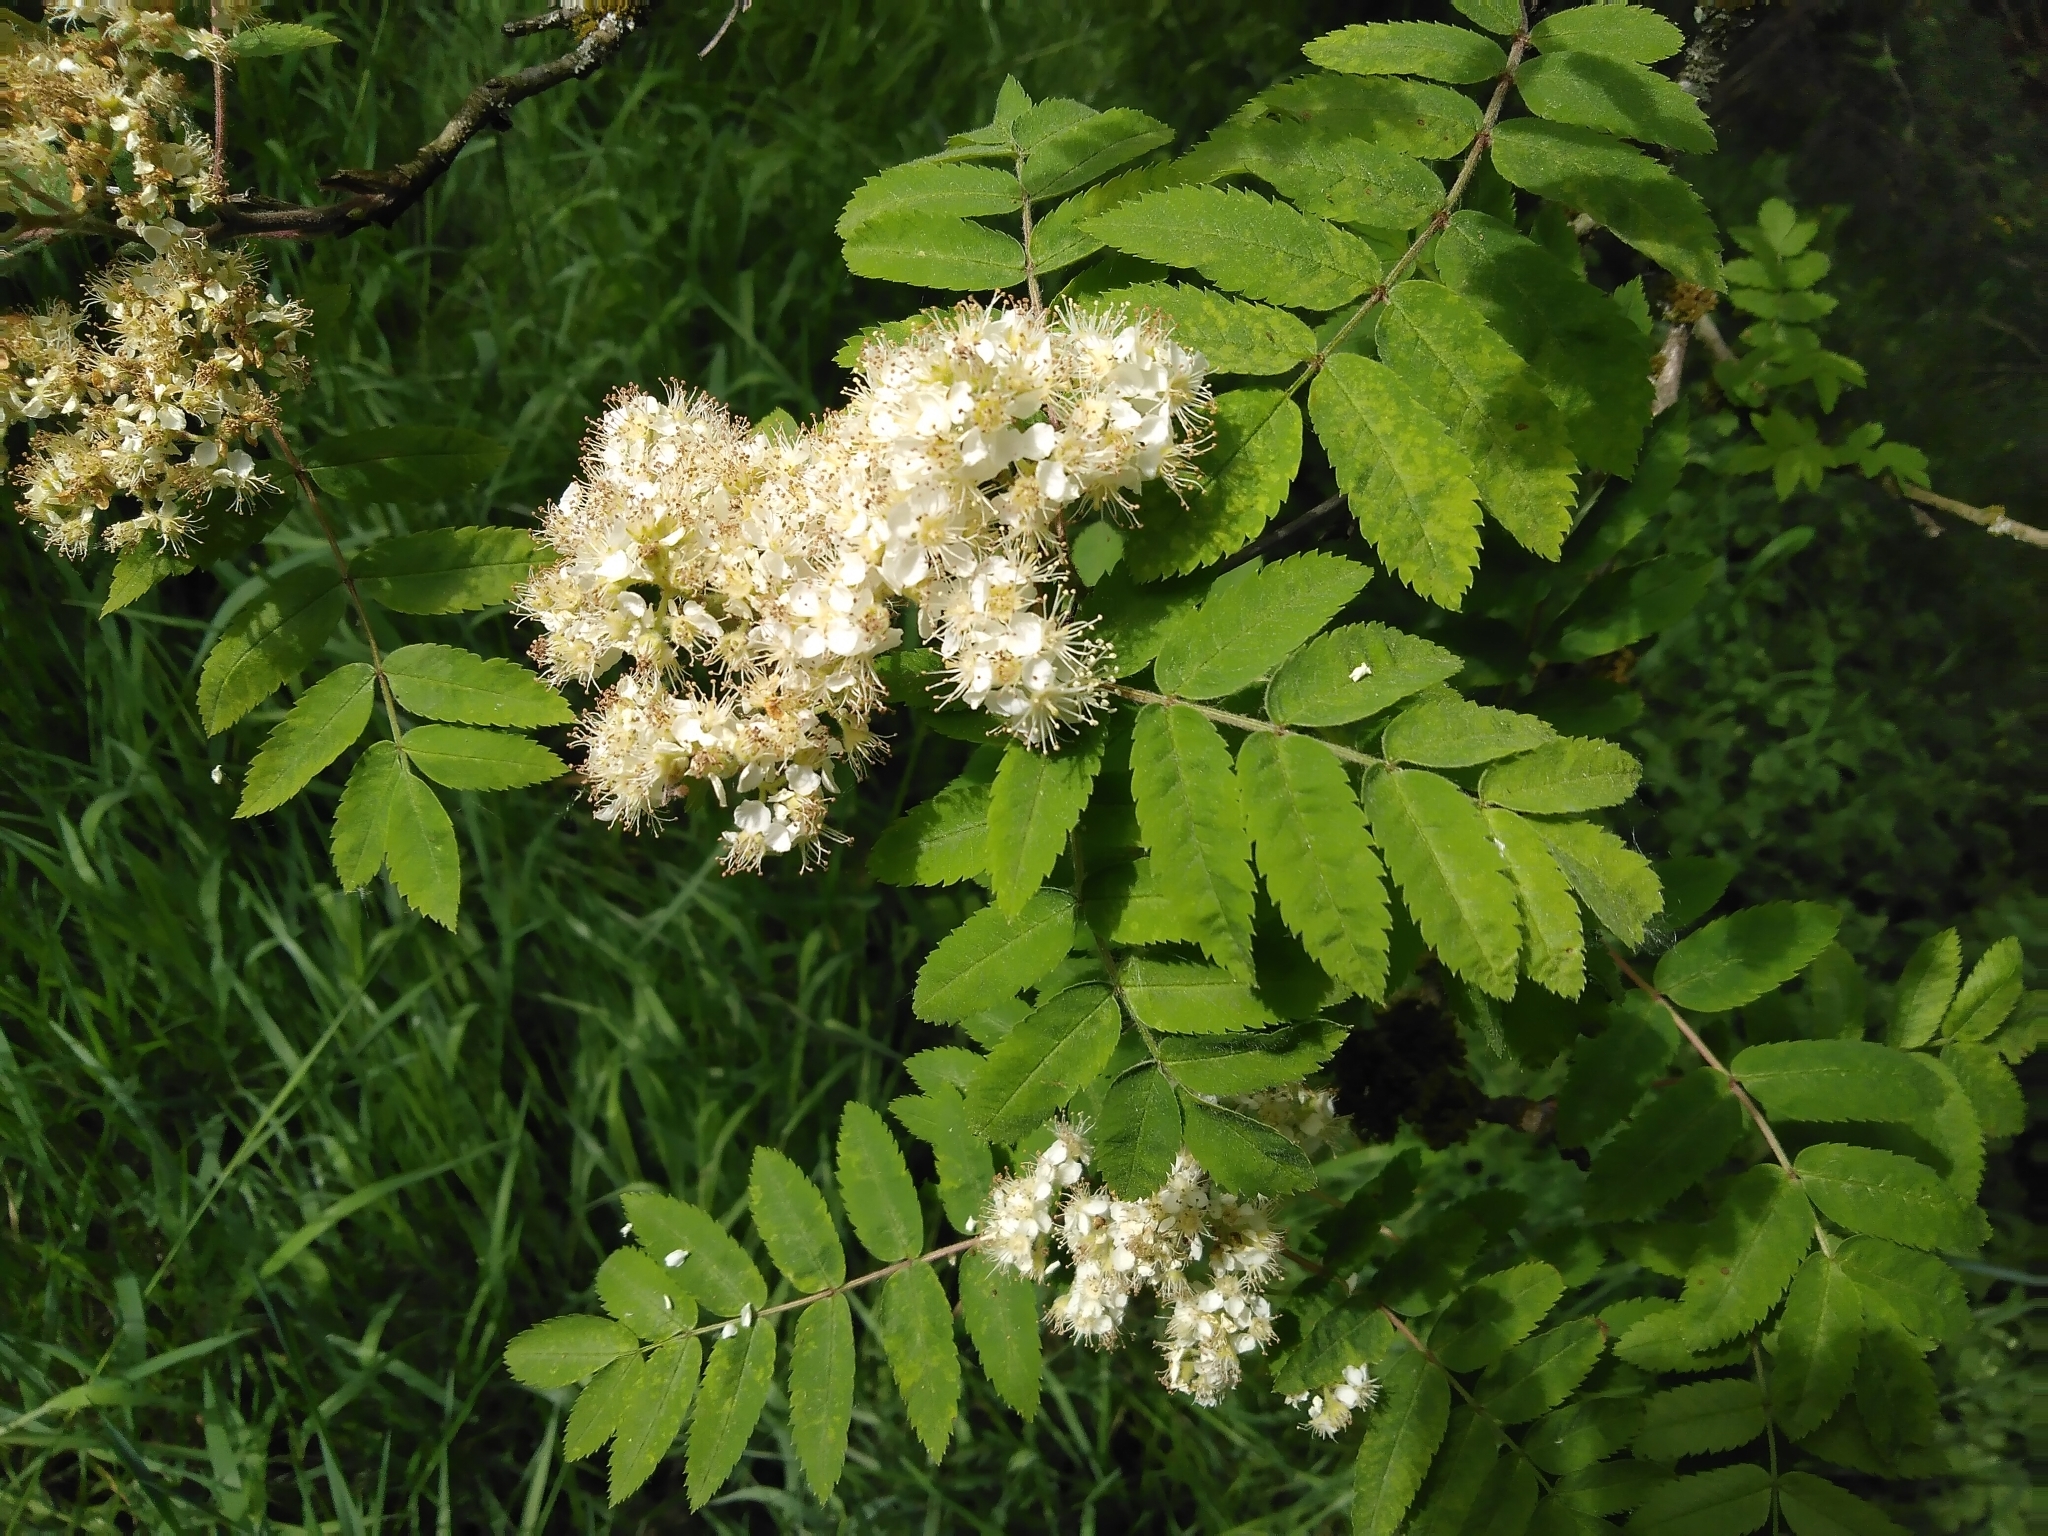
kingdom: Plantae
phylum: Tracheophyta
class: Magnoliopsida
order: Rosales
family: Rosaceae
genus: Sorbus
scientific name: Sorbus aucuparia
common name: Rowan
